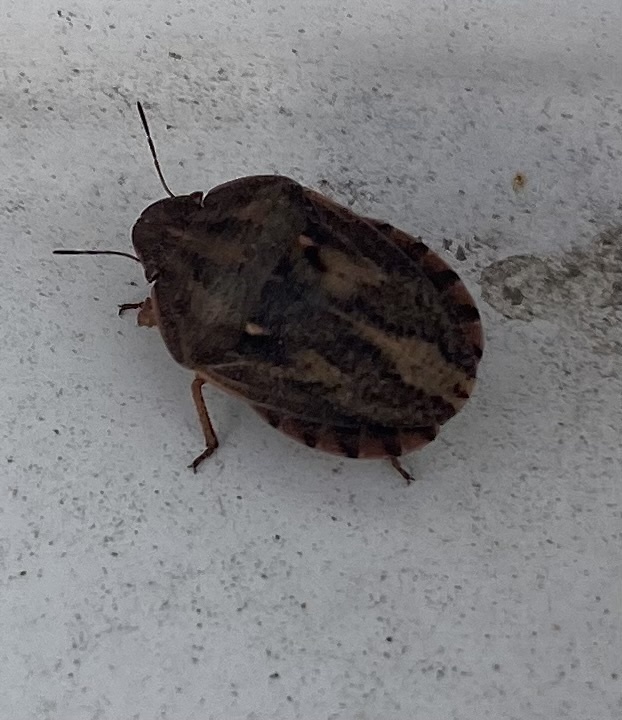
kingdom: Animalia
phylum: Arthropoda
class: Insecta
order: Hemiptera
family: Scutelleridae
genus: Eurygaster
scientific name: Eurygaster integriceps
